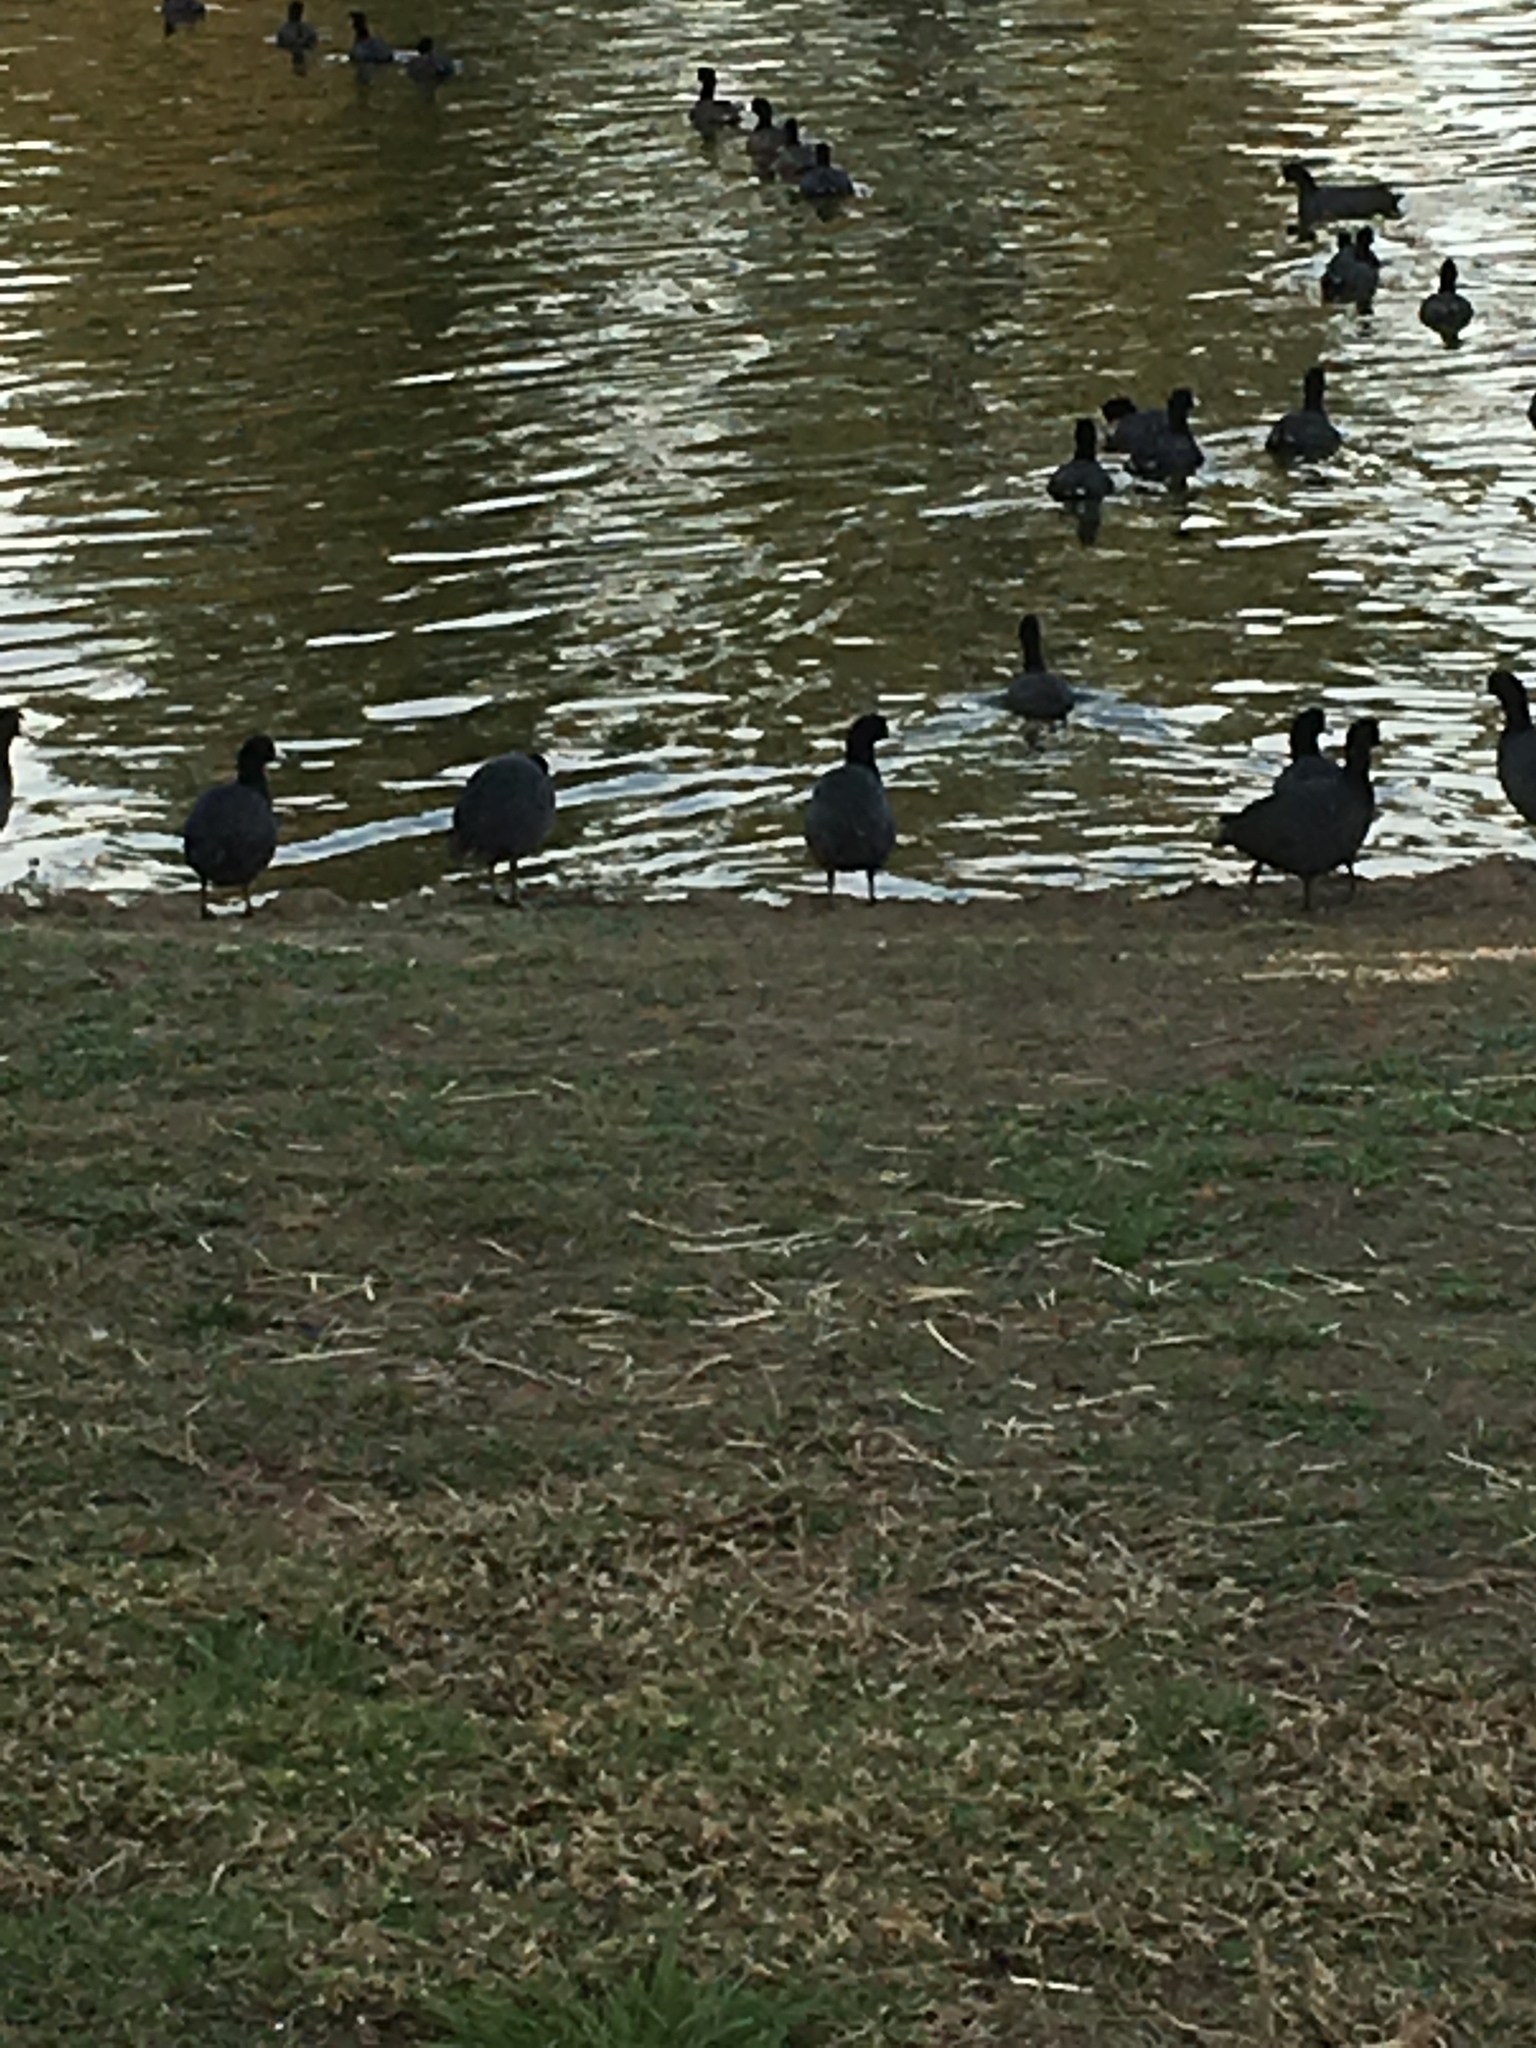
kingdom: Animalia
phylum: Chordata
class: Aves
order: Gruiformes
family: Rallidae
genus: Fulica
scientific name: Fulica americana
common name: American coot
